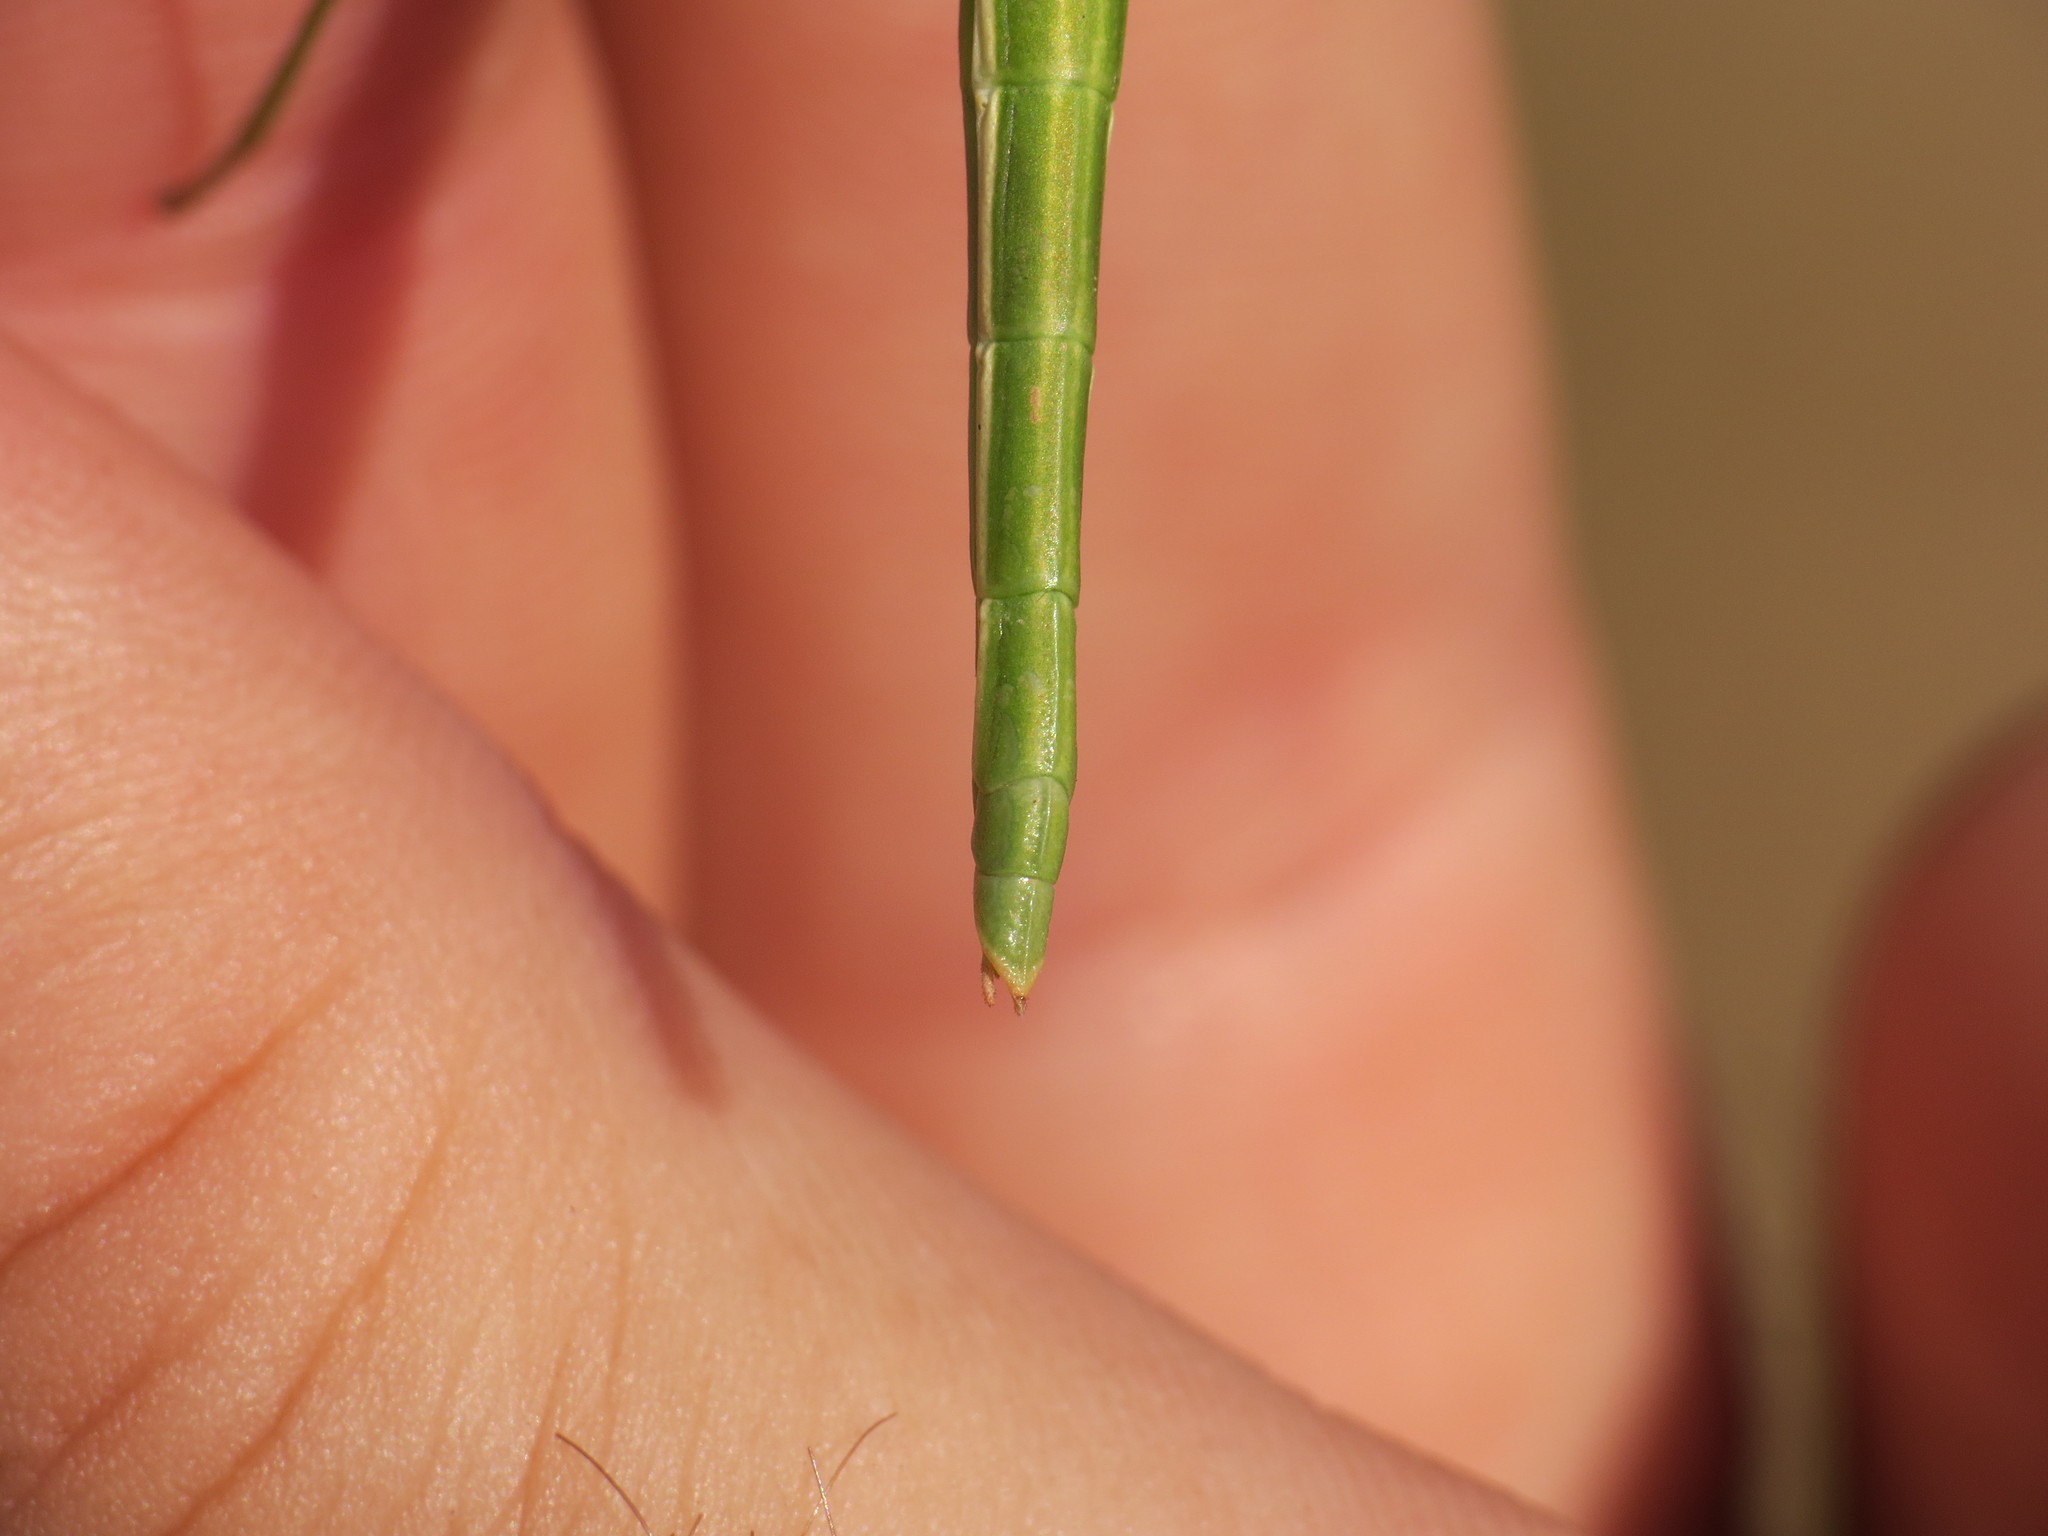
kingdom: Animalia
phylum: Arthropoda
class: Insecta
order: Phasmida
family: Bacillidae
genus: Pijnackeria
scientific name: Pijnackeria masettii
